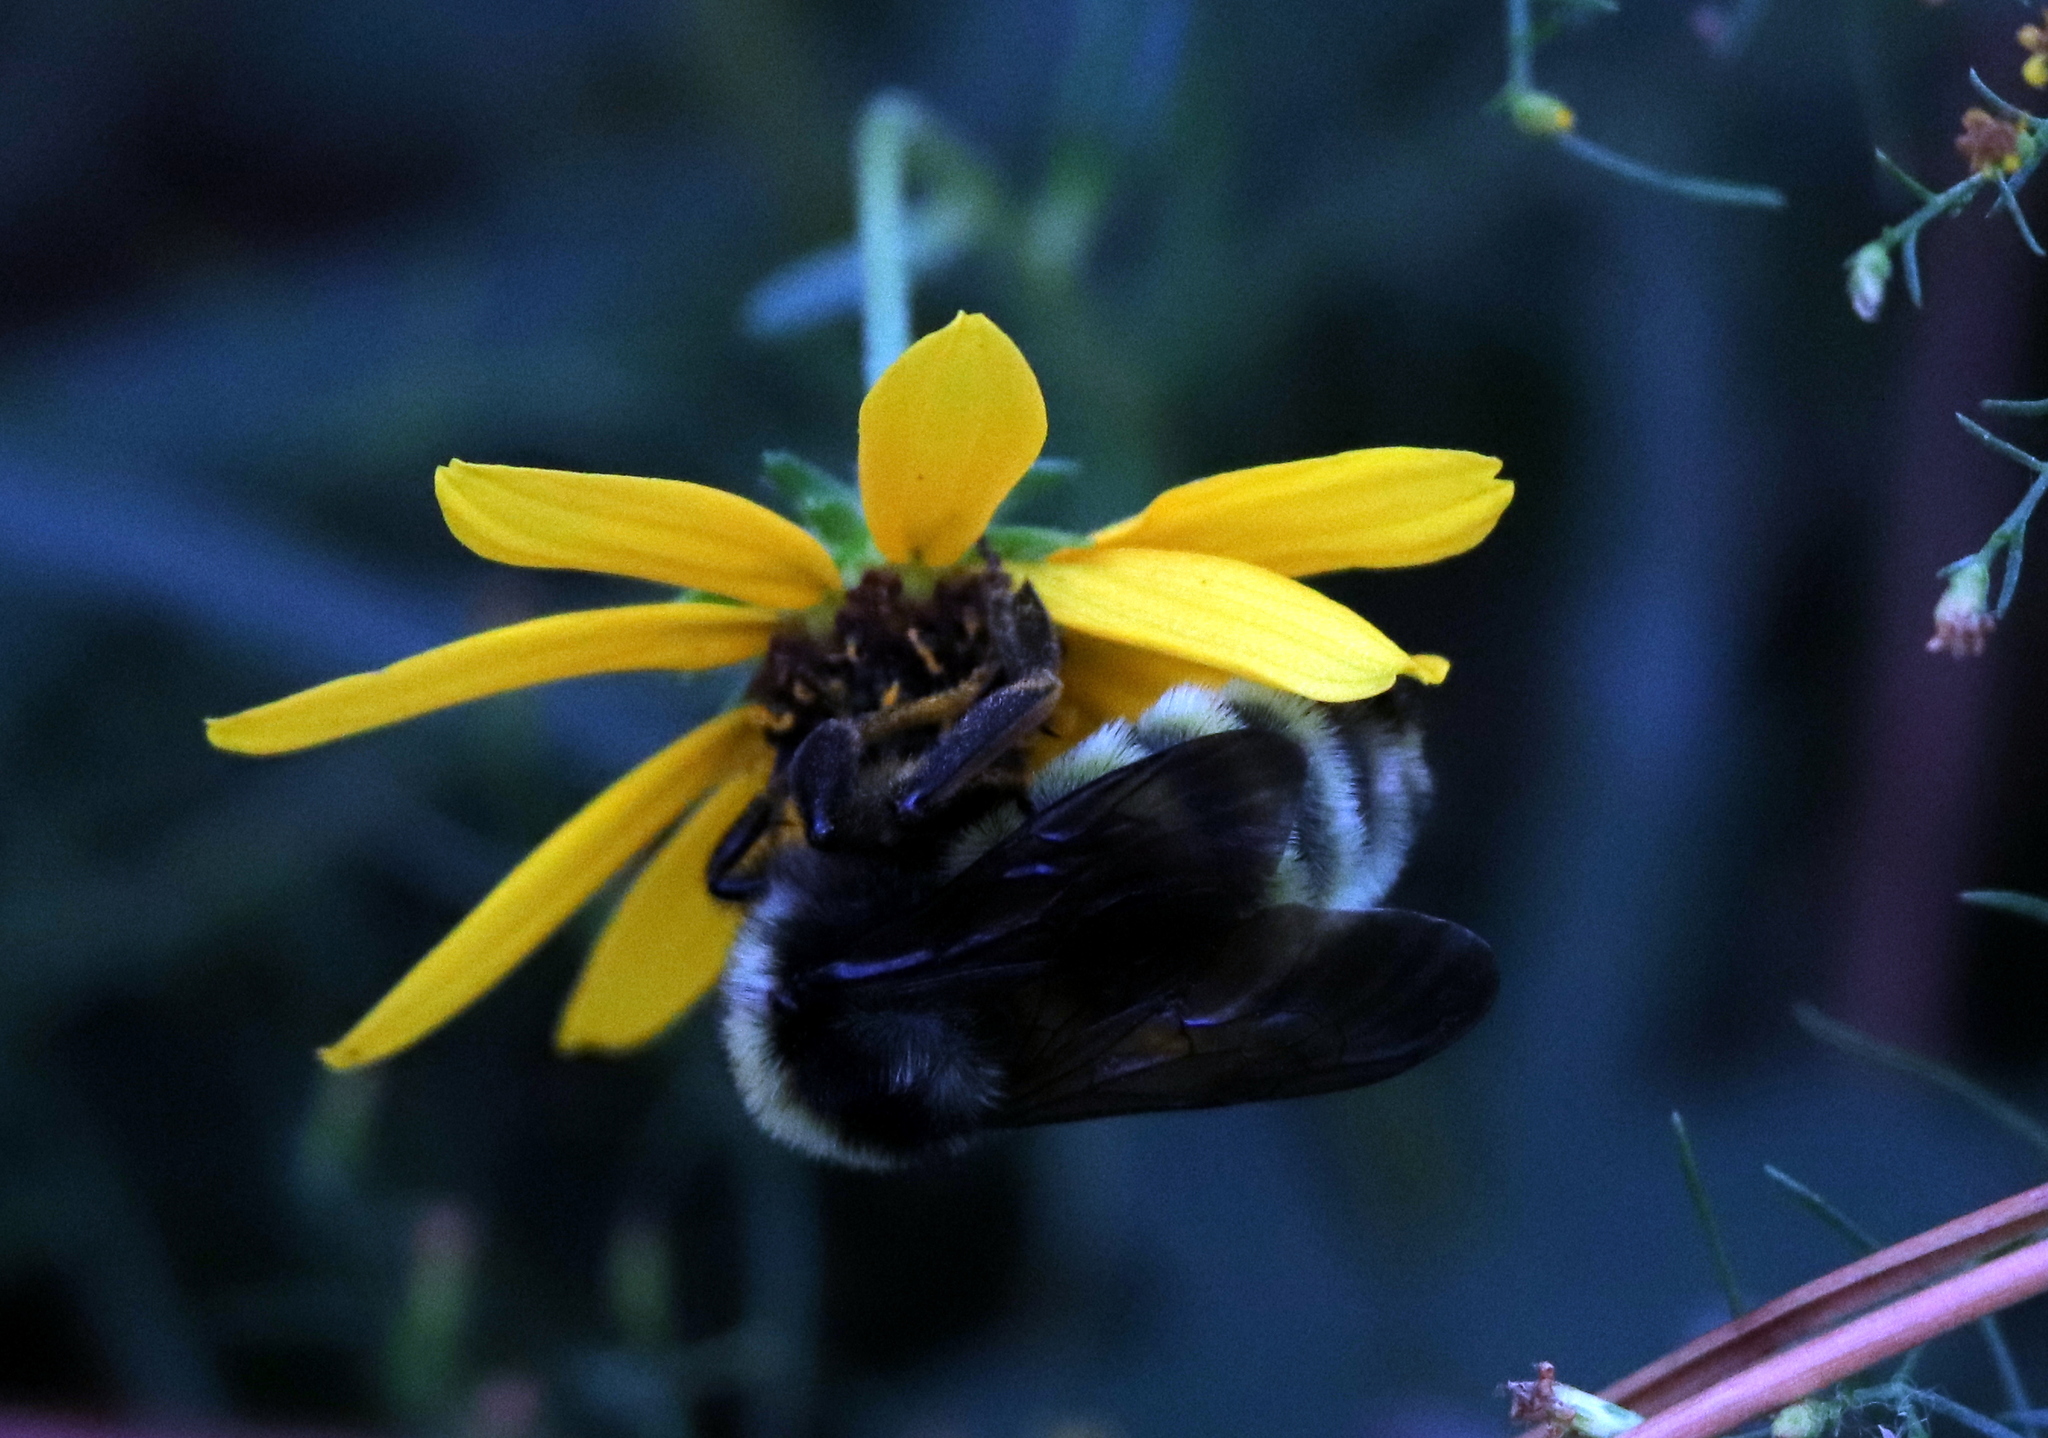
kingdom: Animalia
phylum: Arthropoda
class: Insecta
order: Hymenoptera
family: Apidae
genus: Bombus
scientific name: Bombus pensylvanicus
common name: Bumble bee
